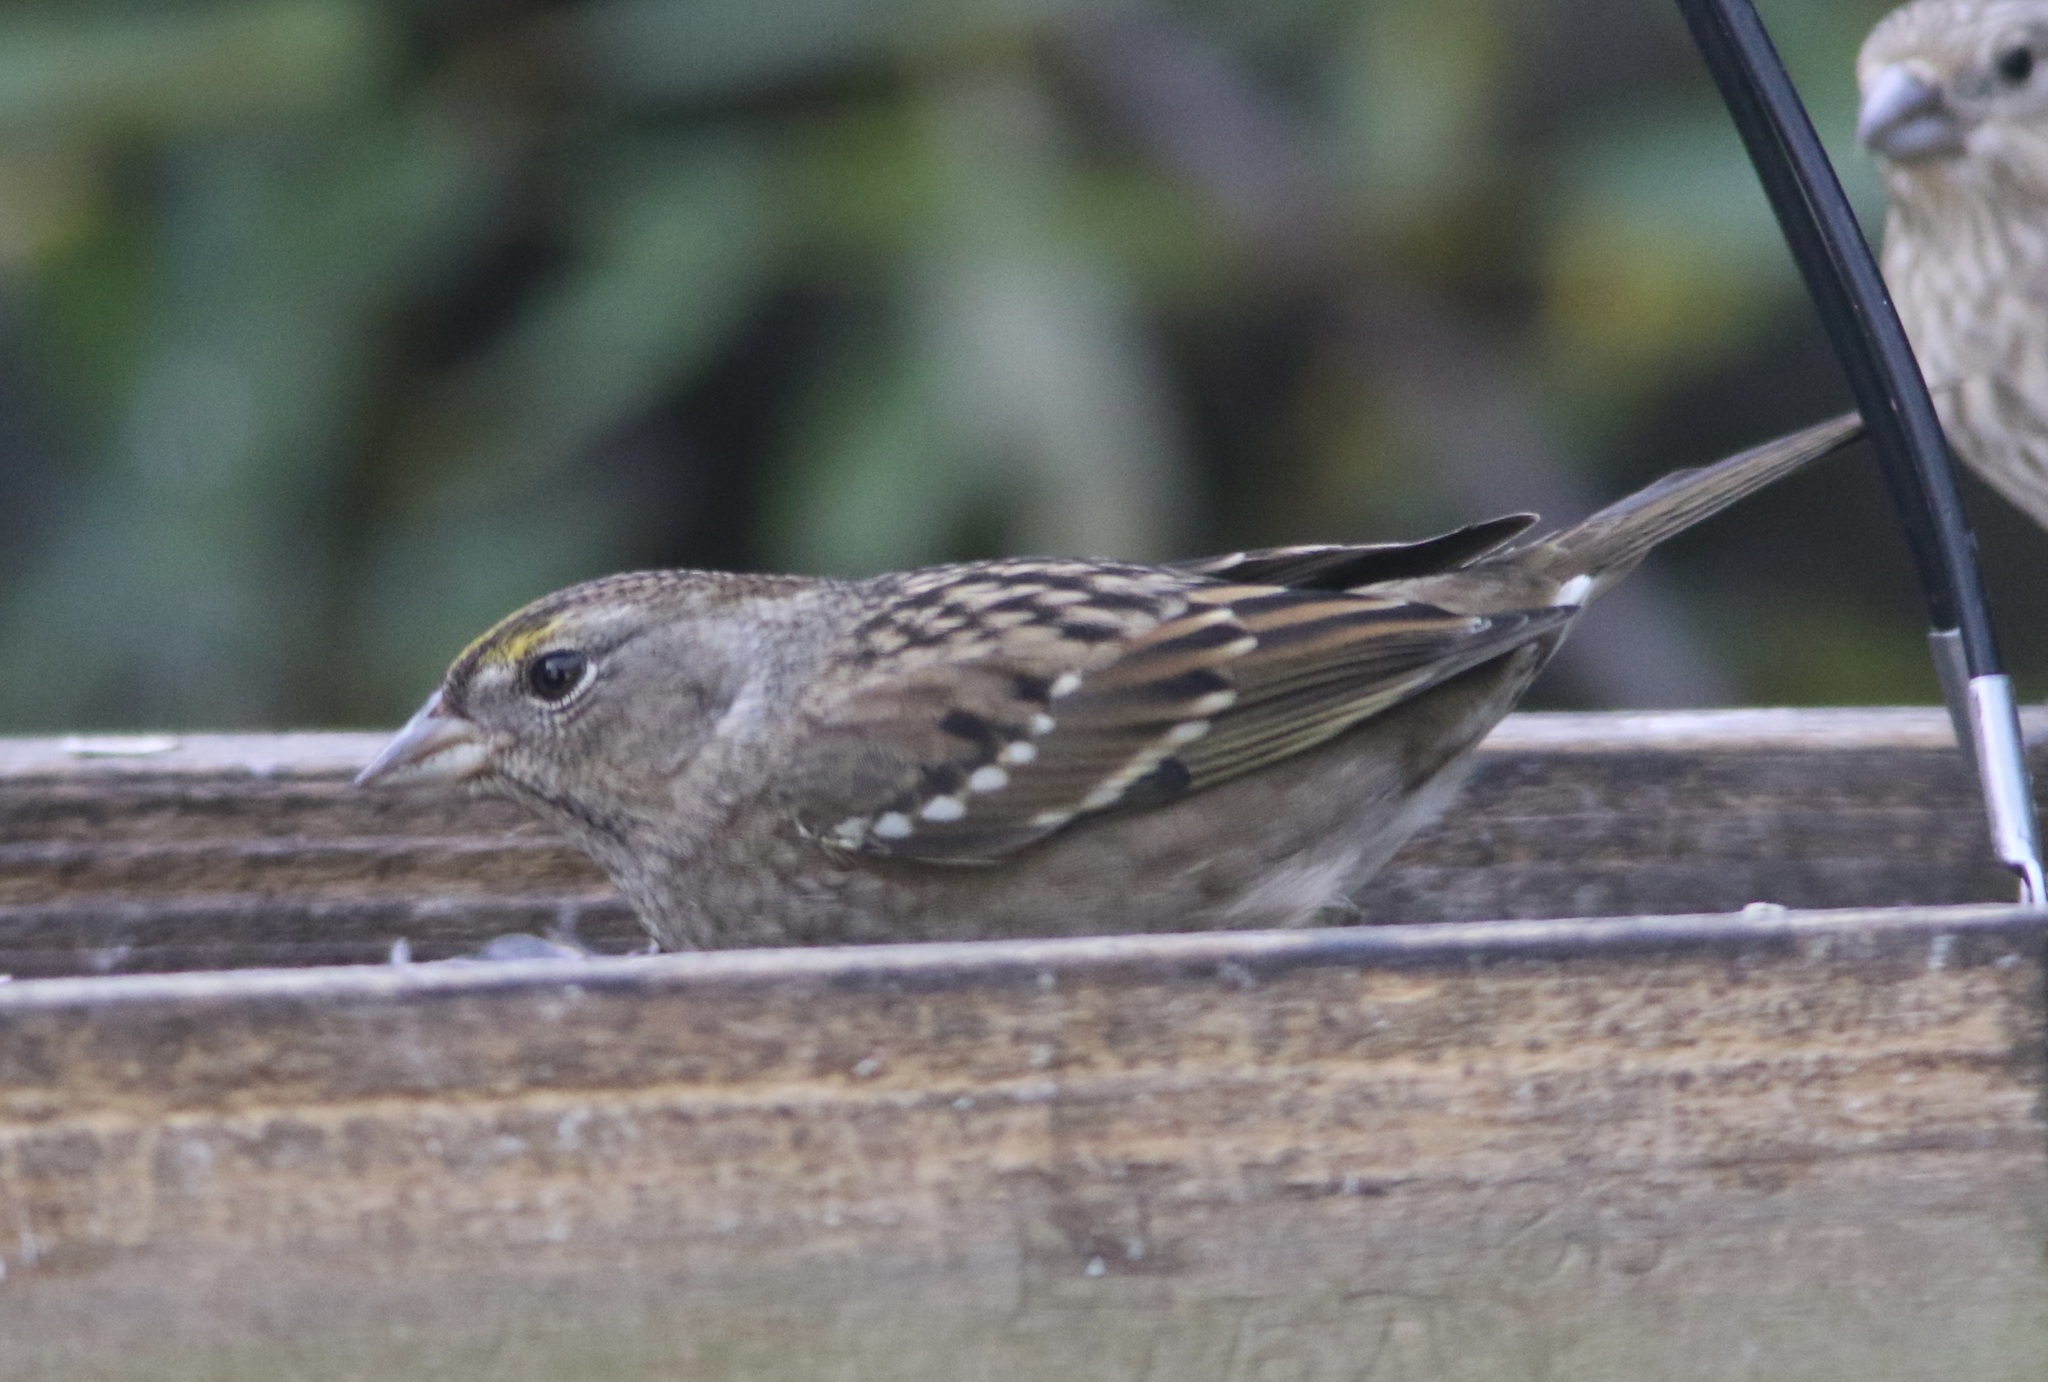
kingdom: Animalia
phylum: Chordata
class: Aves
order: Passeriformes
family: Passerellidae
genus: Zonotrichia
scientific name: Zonotrichia atricapilla
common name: Golden-crowned sparrow
